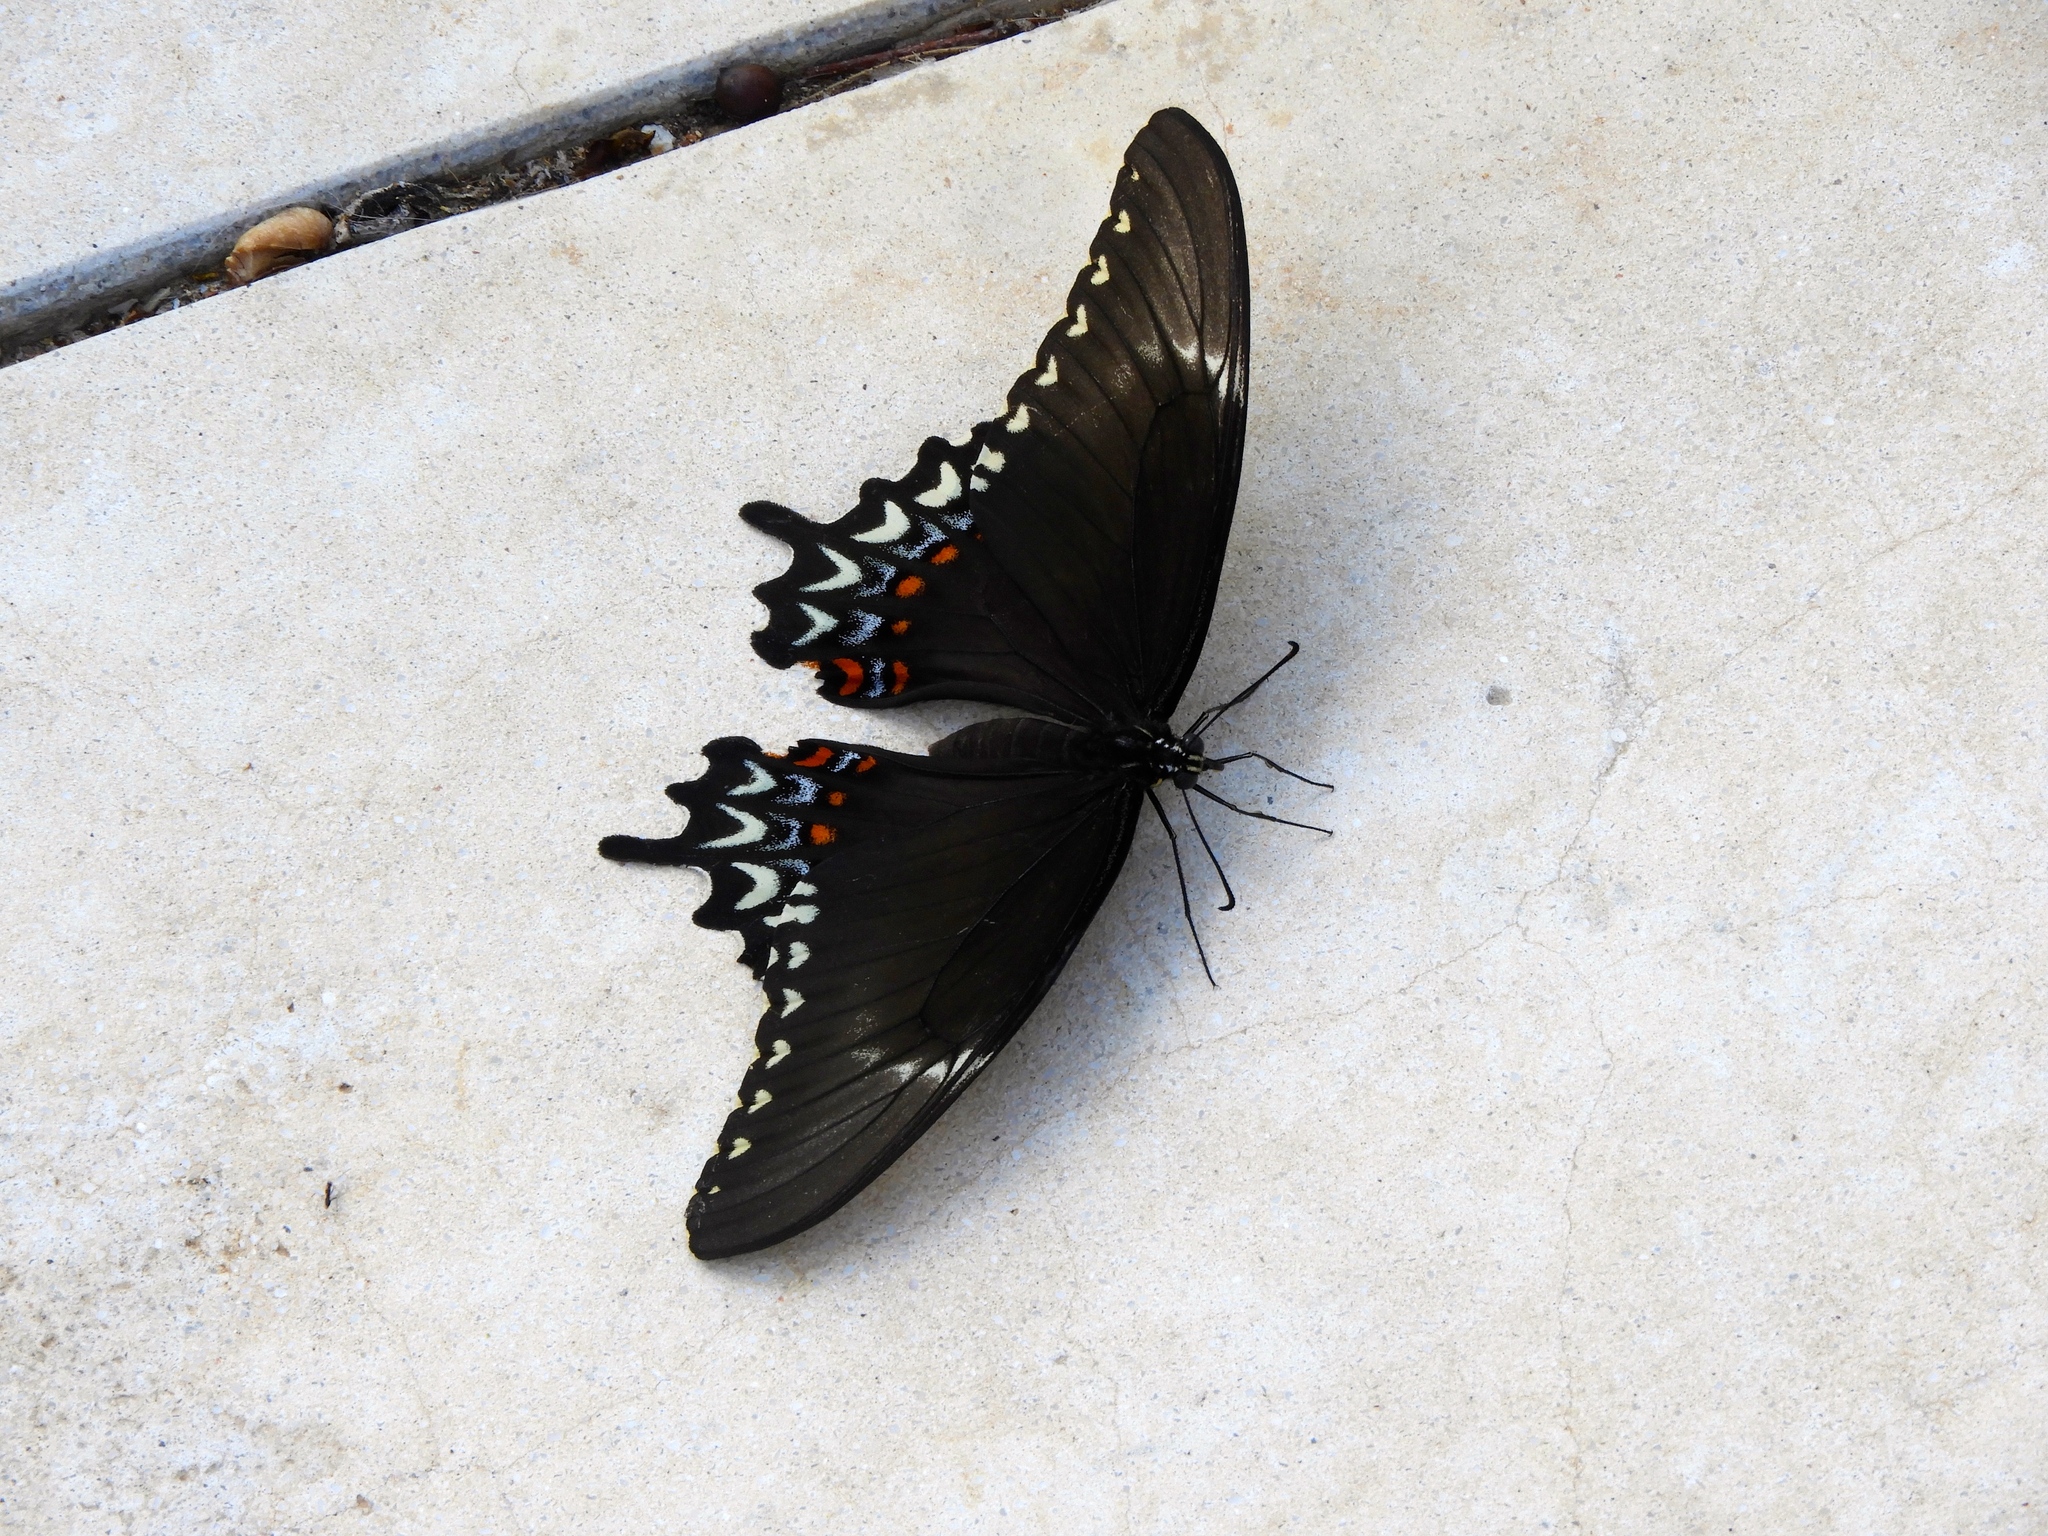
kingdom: Animalia
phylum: Arthropoda
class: Insecta
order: Lepidoptera
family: Papilionidae
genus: Heraclides
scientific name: Heraclides pallas
